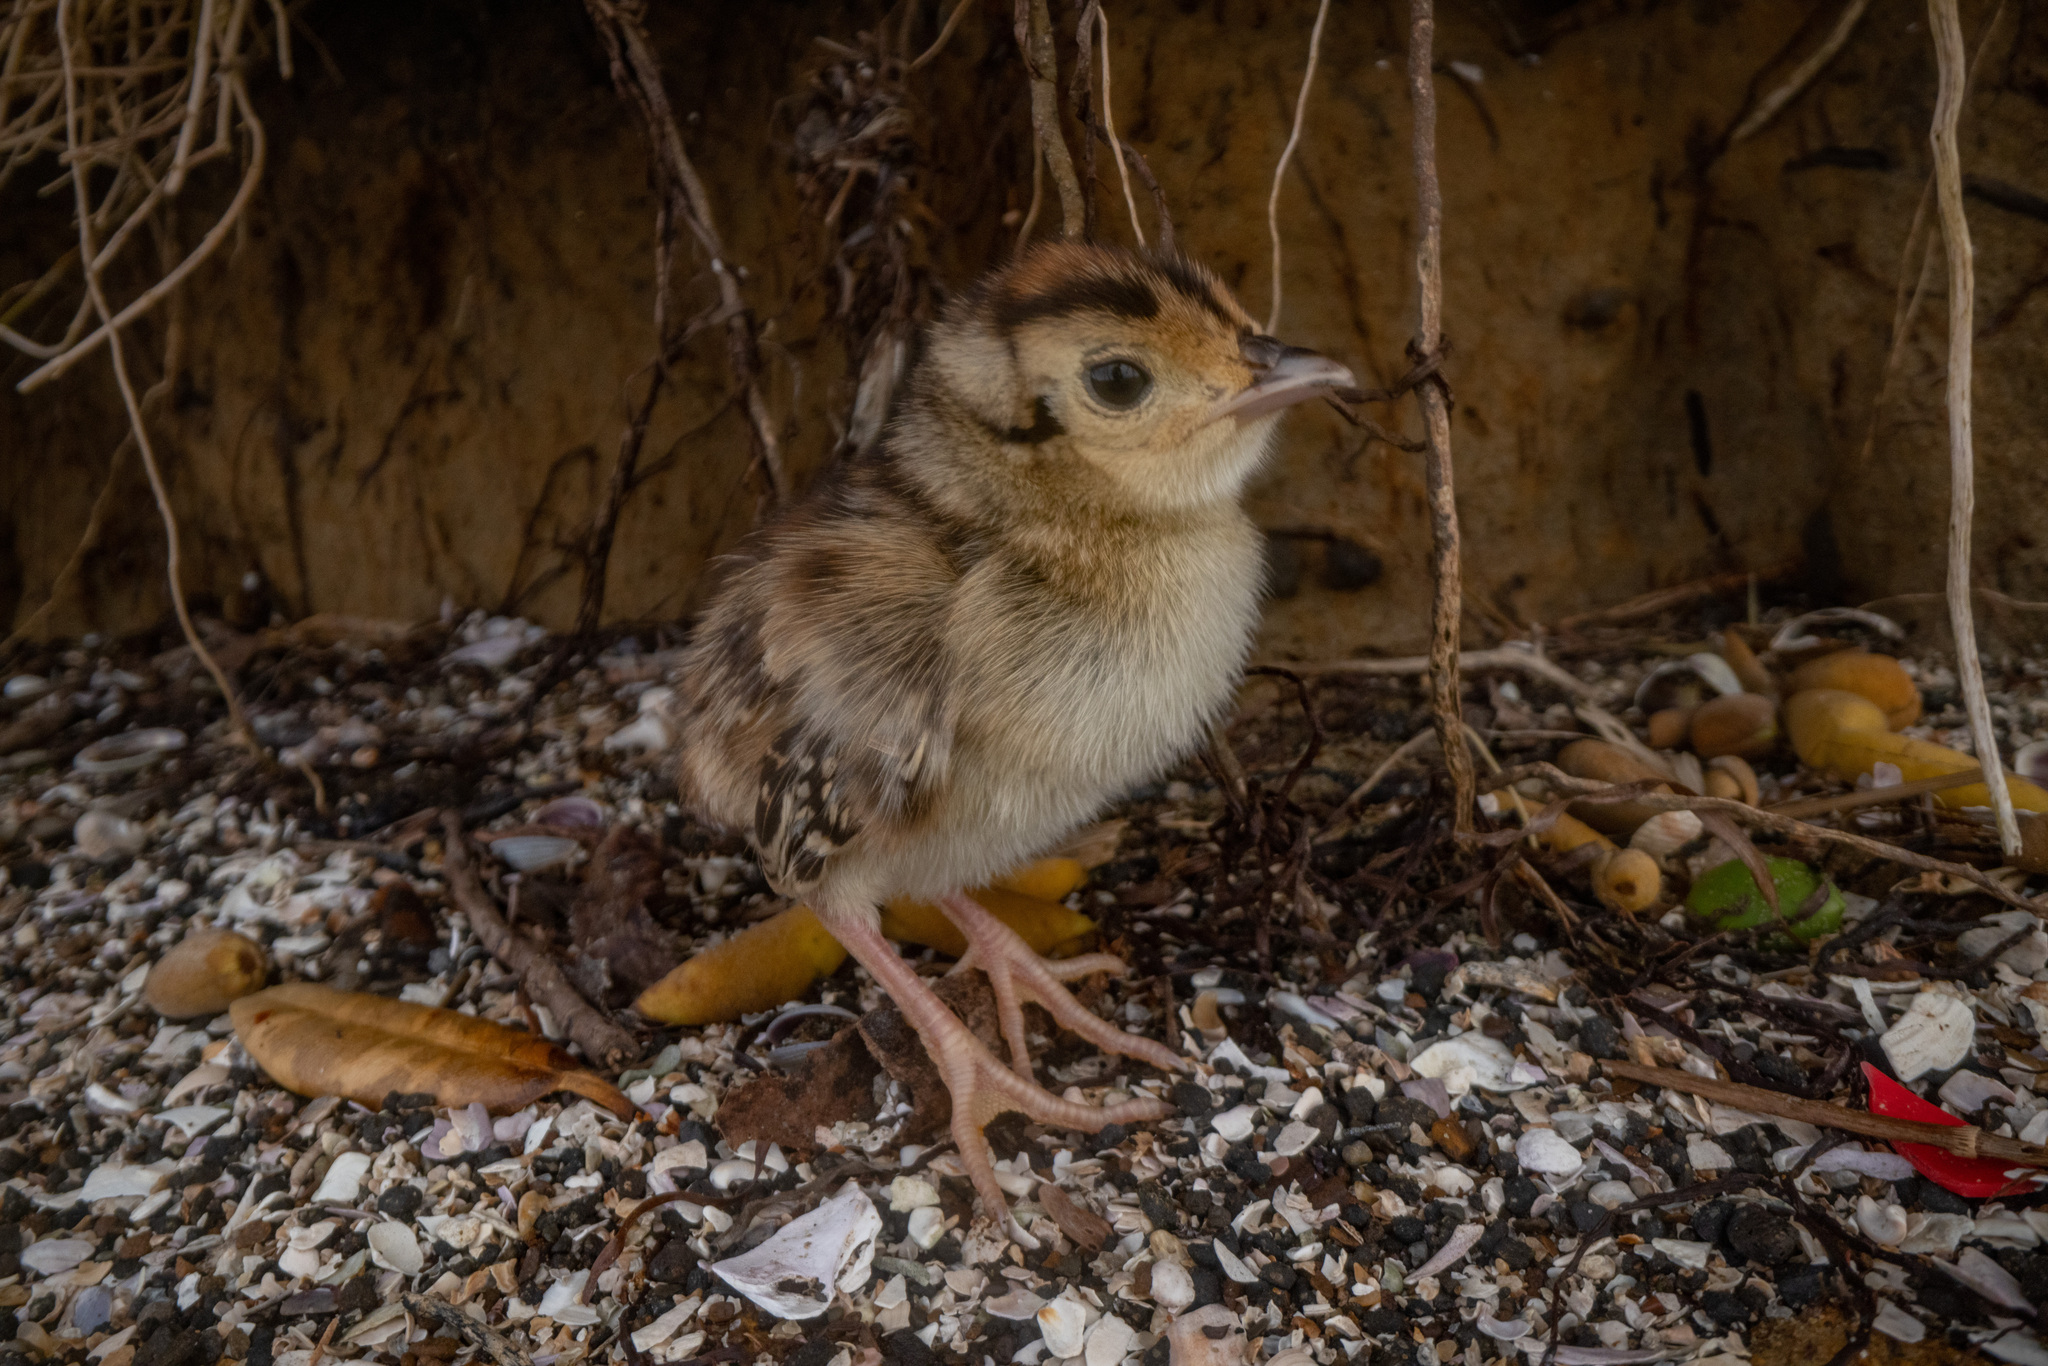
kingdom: Animalia
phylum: Chordata
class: Aves
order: Galliformes
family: Phasianidae
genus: Phasianus
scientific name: Phasianus colchicus
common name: Common pheasant
